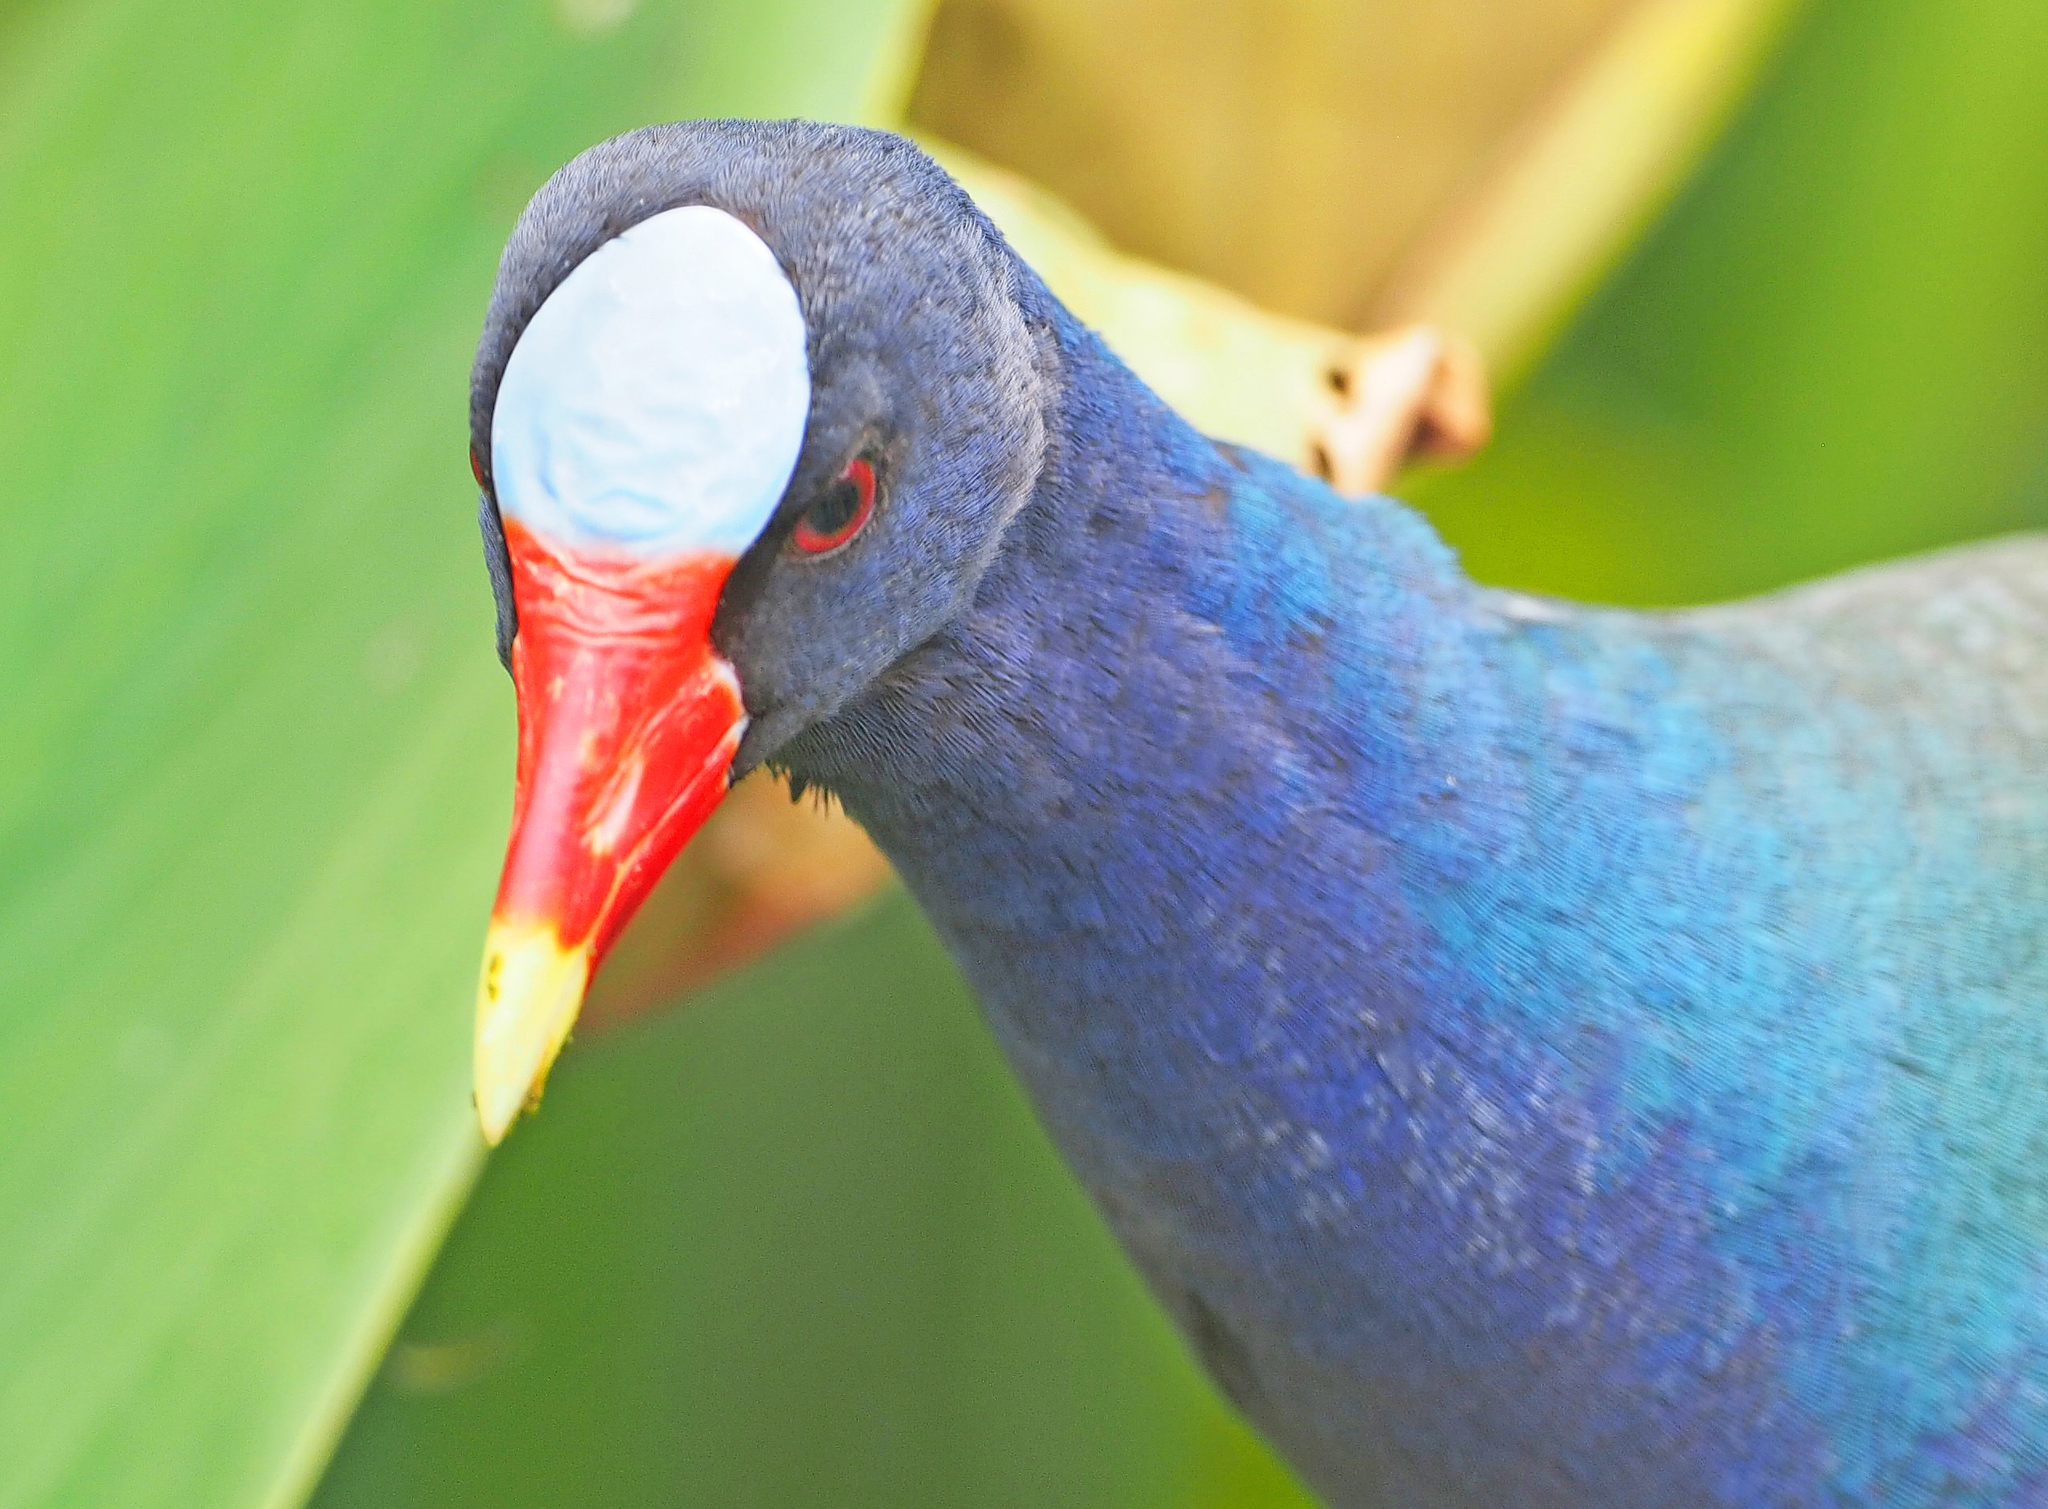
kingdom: Animalia
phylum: Chordata
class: Aves
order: Gruiformes
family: Rallidae
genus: Porphyrio
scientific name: Porphyrio martinica
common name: Purple gallinule
